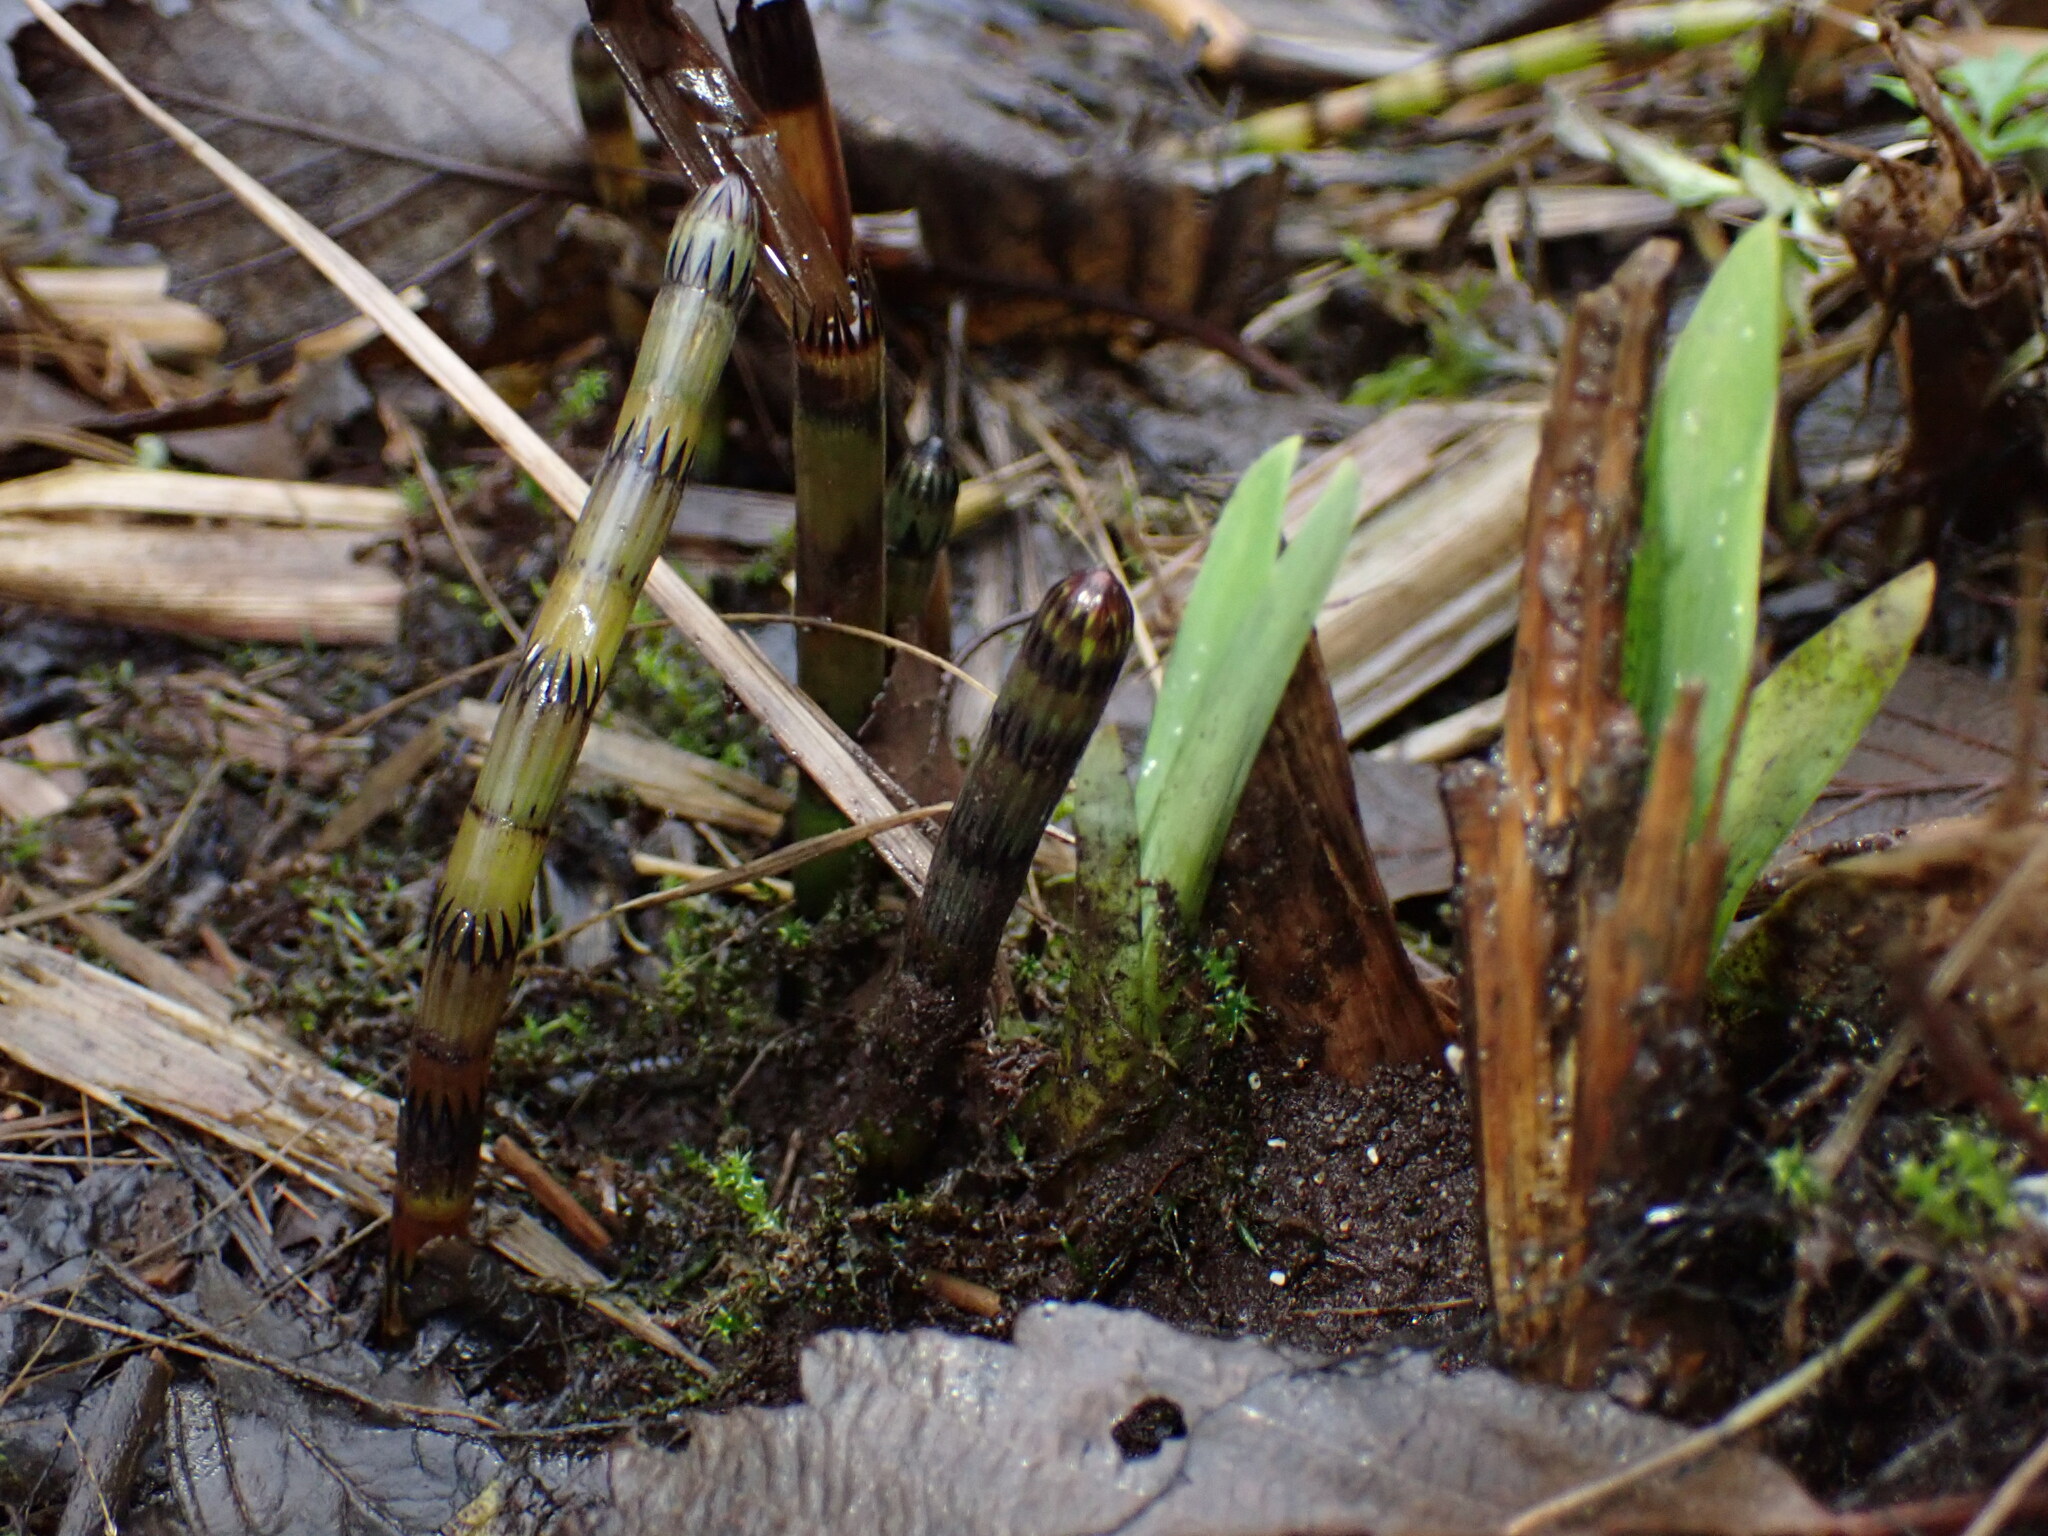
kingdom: Plantae
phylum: Tracheophyta
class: Polypodiopsida
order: Equisetales
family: Equisetaceae
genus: Equisetum
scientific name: Equisetum fluviatile
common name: Water horsetail
